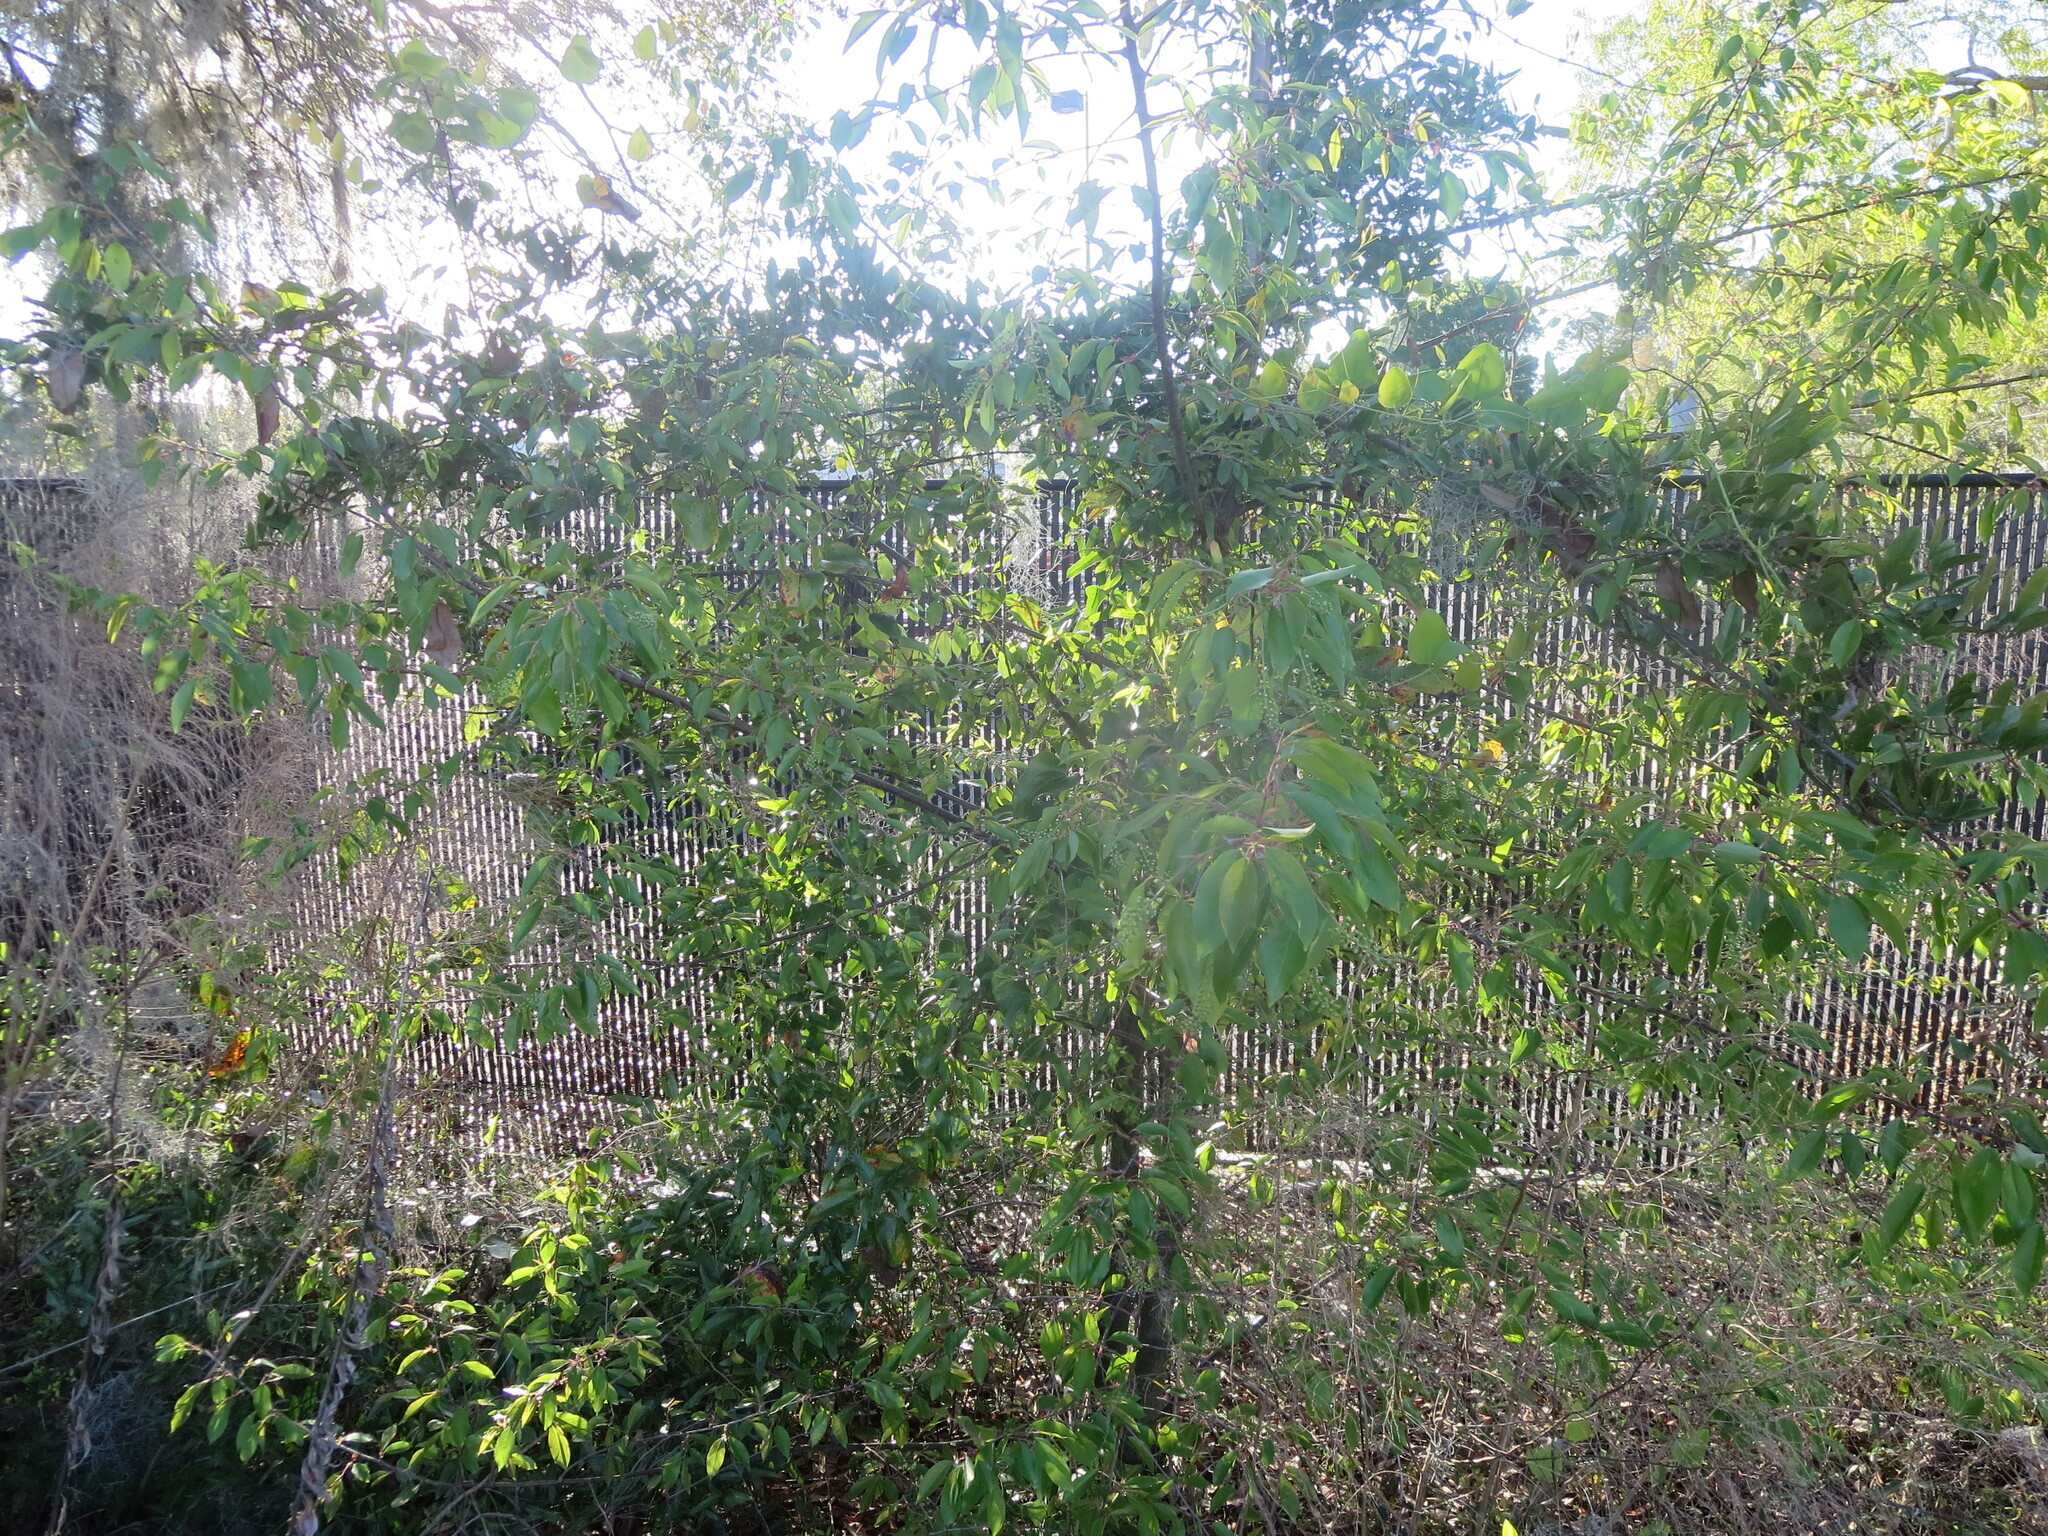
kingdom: Plantae
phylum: Tracheophyta
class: Magnoliopsida
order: Rosales
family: Rosaceae
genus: Prunus
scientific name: Prunus serotina
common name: Black cherry
